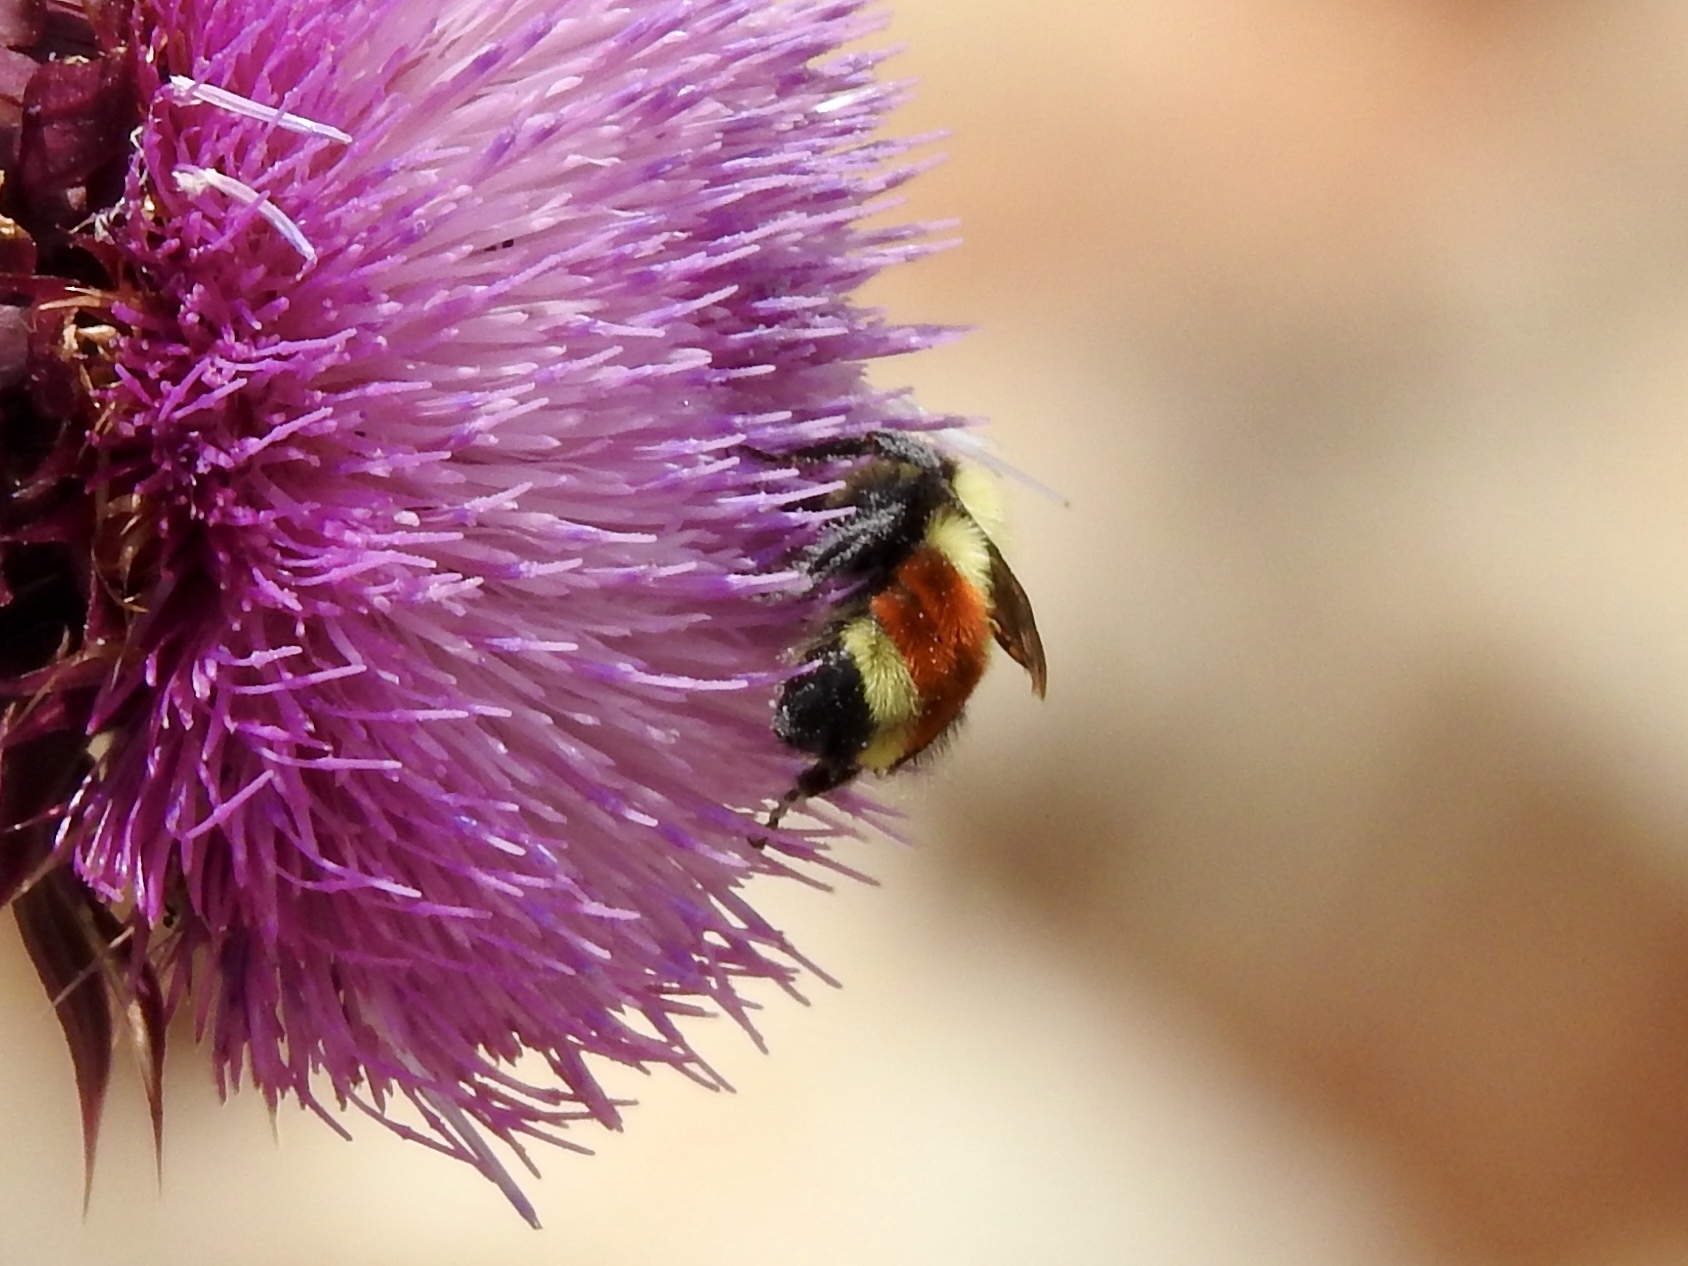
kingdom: Animalia
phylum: Arthropoda
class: Insecta
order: Hymenoptera
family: Apidae
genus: Bombus
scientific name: Bombus huntii
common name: Hunt bumble bee
